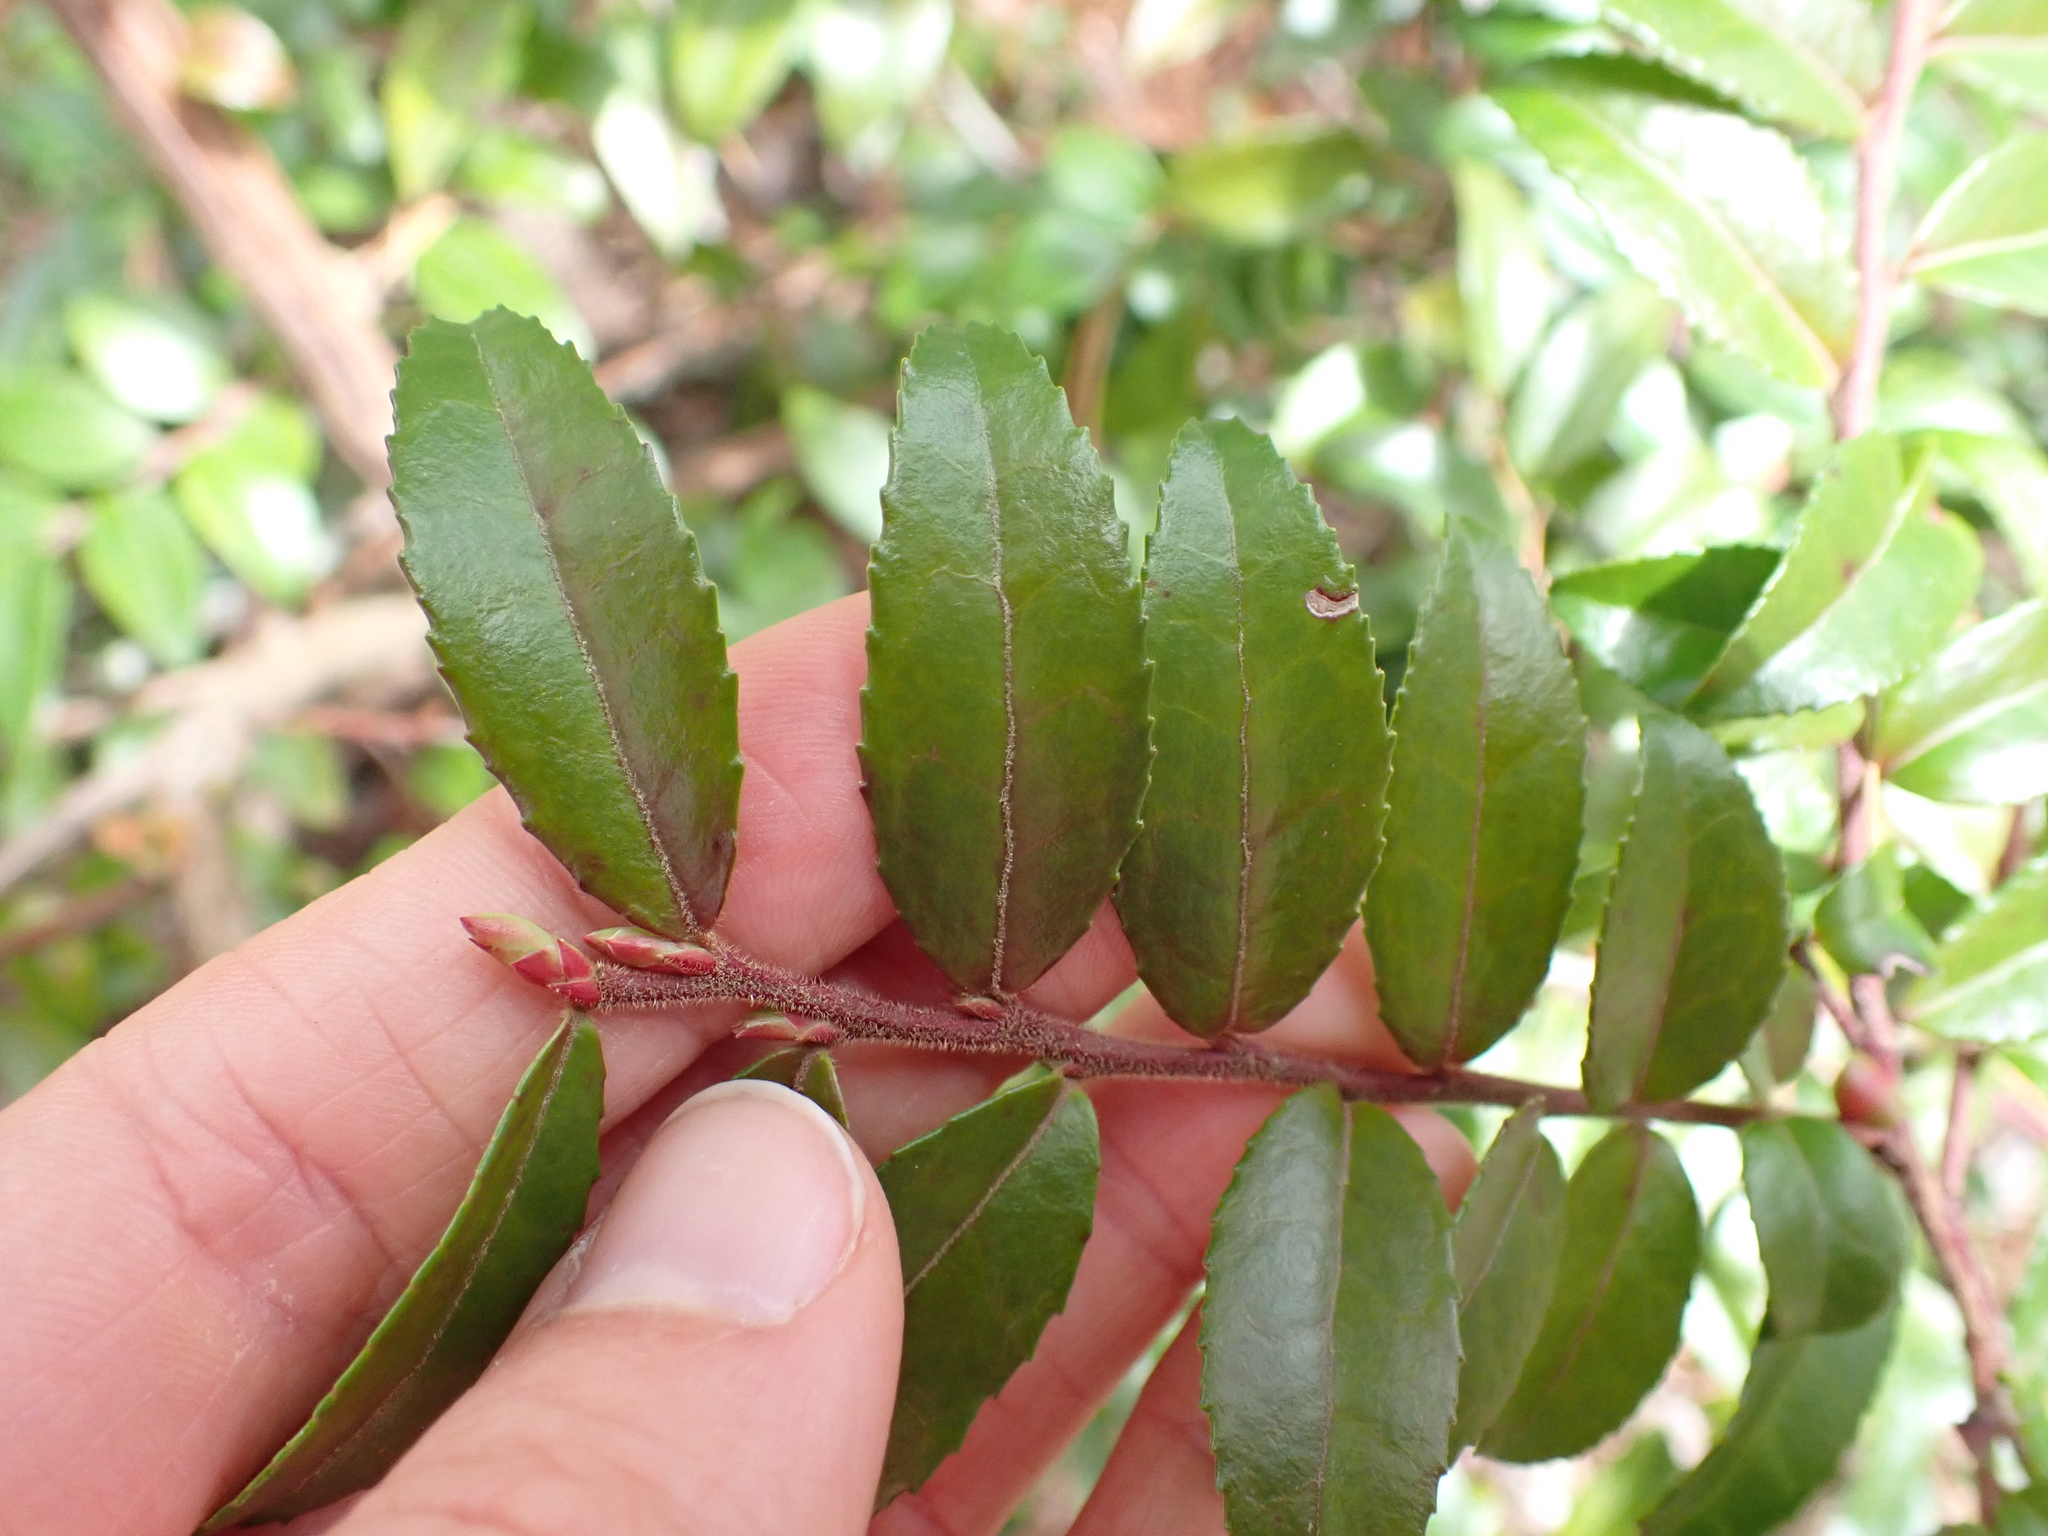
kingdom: Plantae
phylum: Tracheophyta
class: Magnoliopsida
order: Ericales
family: Ericaceae
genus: Vaccinium
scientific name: Vaccinium ovatum
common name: California-huckleberry
